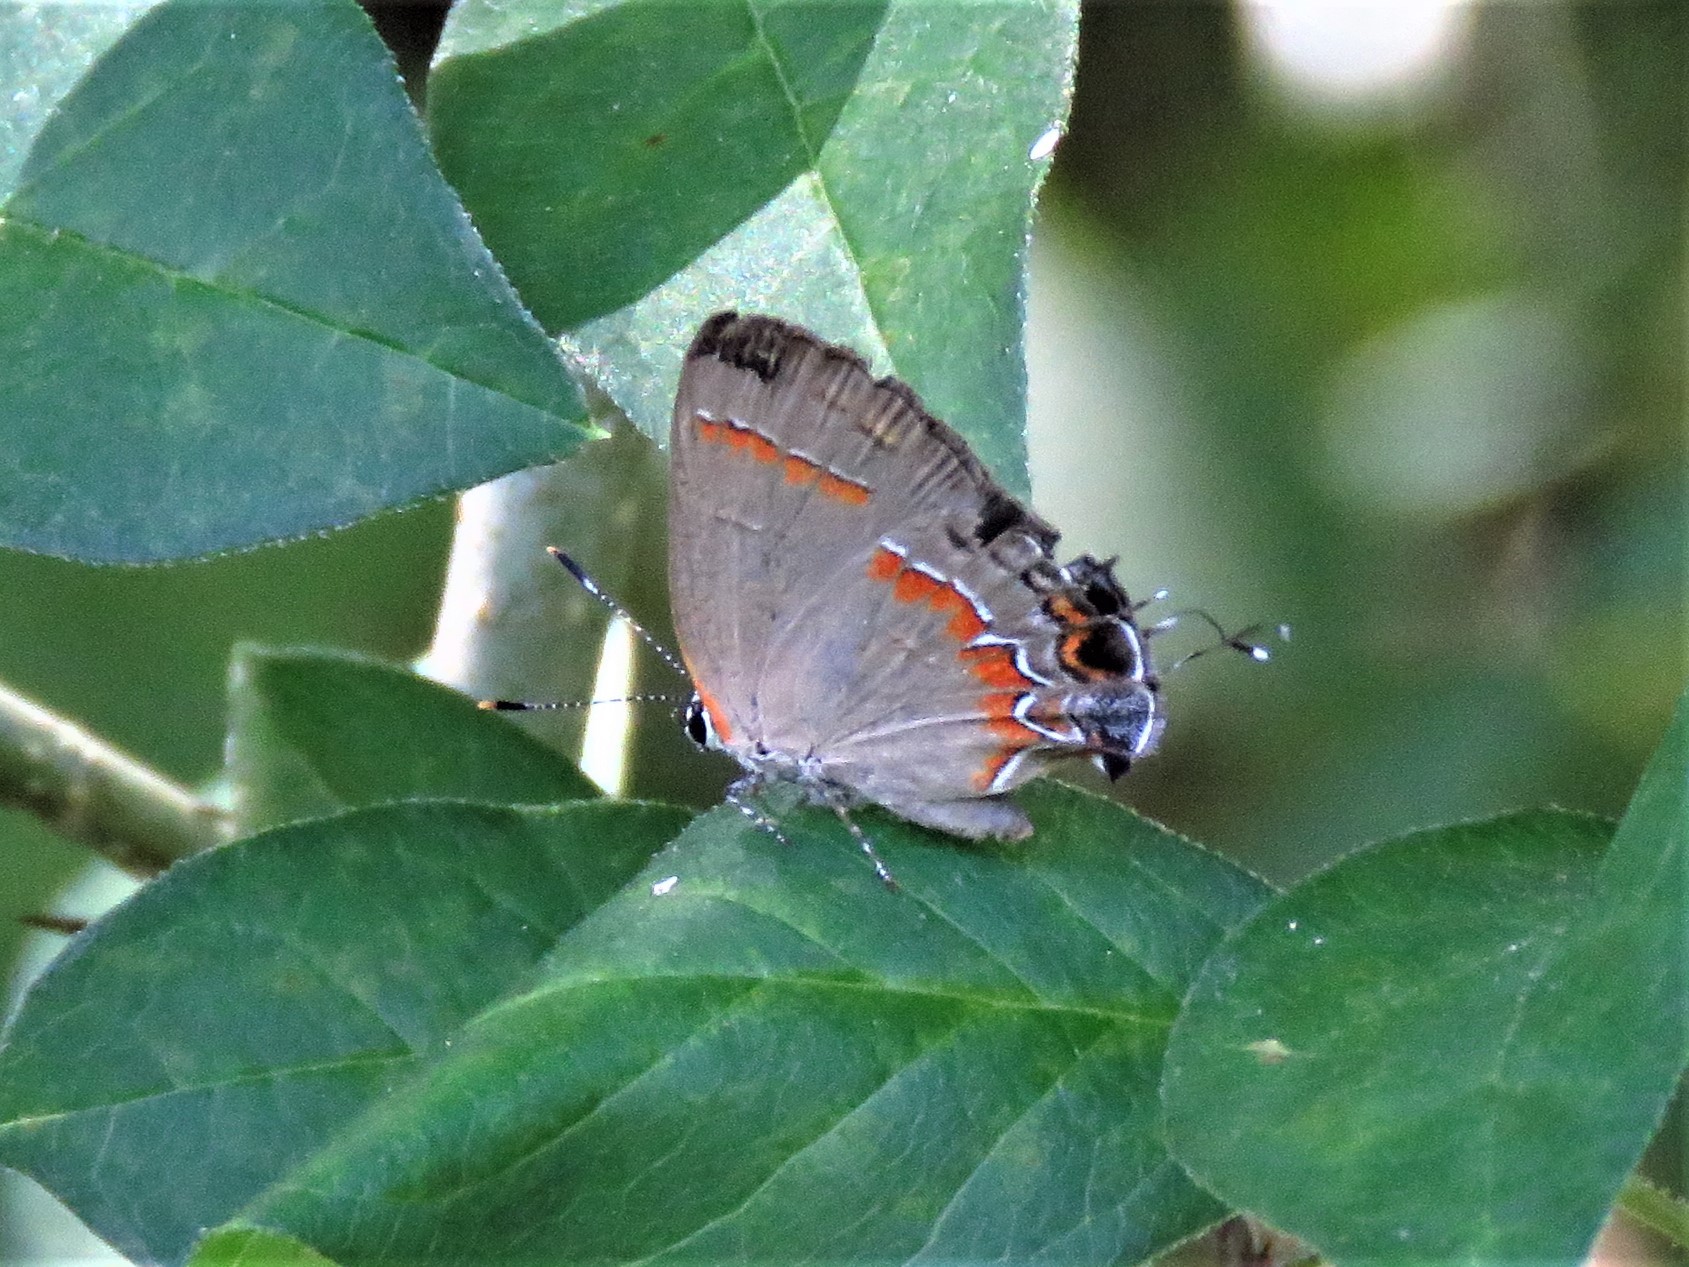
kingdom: Animalia
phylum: Arthropoda
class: Insecta
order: Lepidoptera
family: Lycaenidae
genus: Calycopis
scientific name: Calycopis cecrops
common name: Red-banded hairstreak
